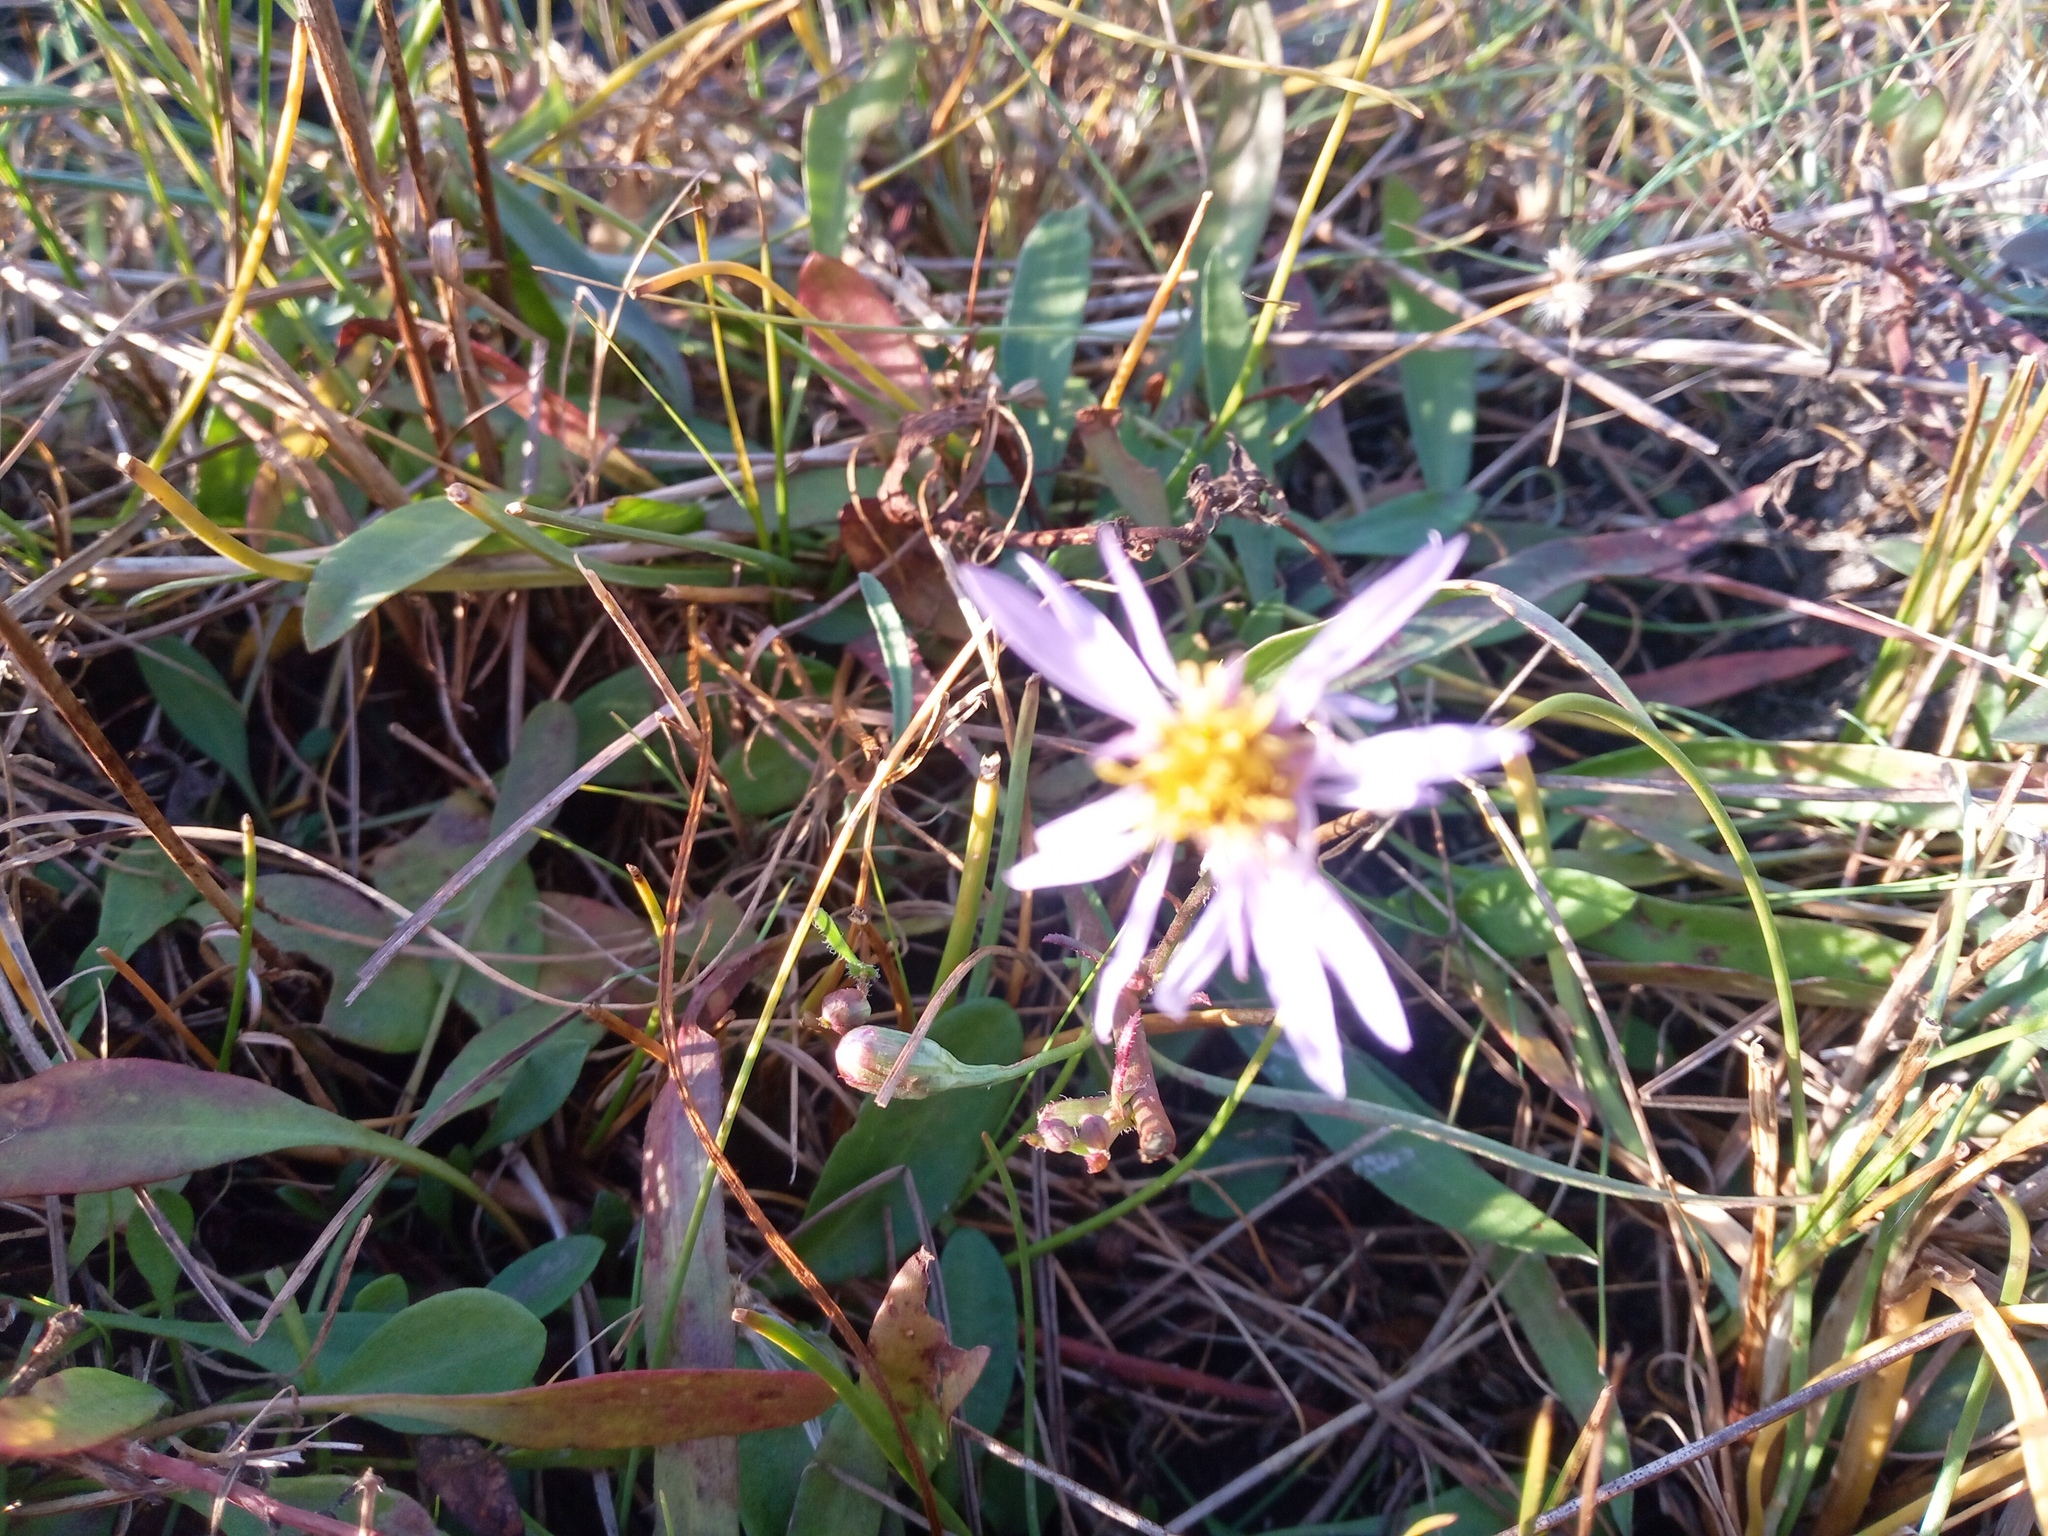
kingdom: Plantae
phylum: Tracheophyta
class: Magnoliopsida
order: Asterales
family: Asteraceae
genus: Tripolium
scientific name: Tripolium pannonicum
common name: Sea aster
